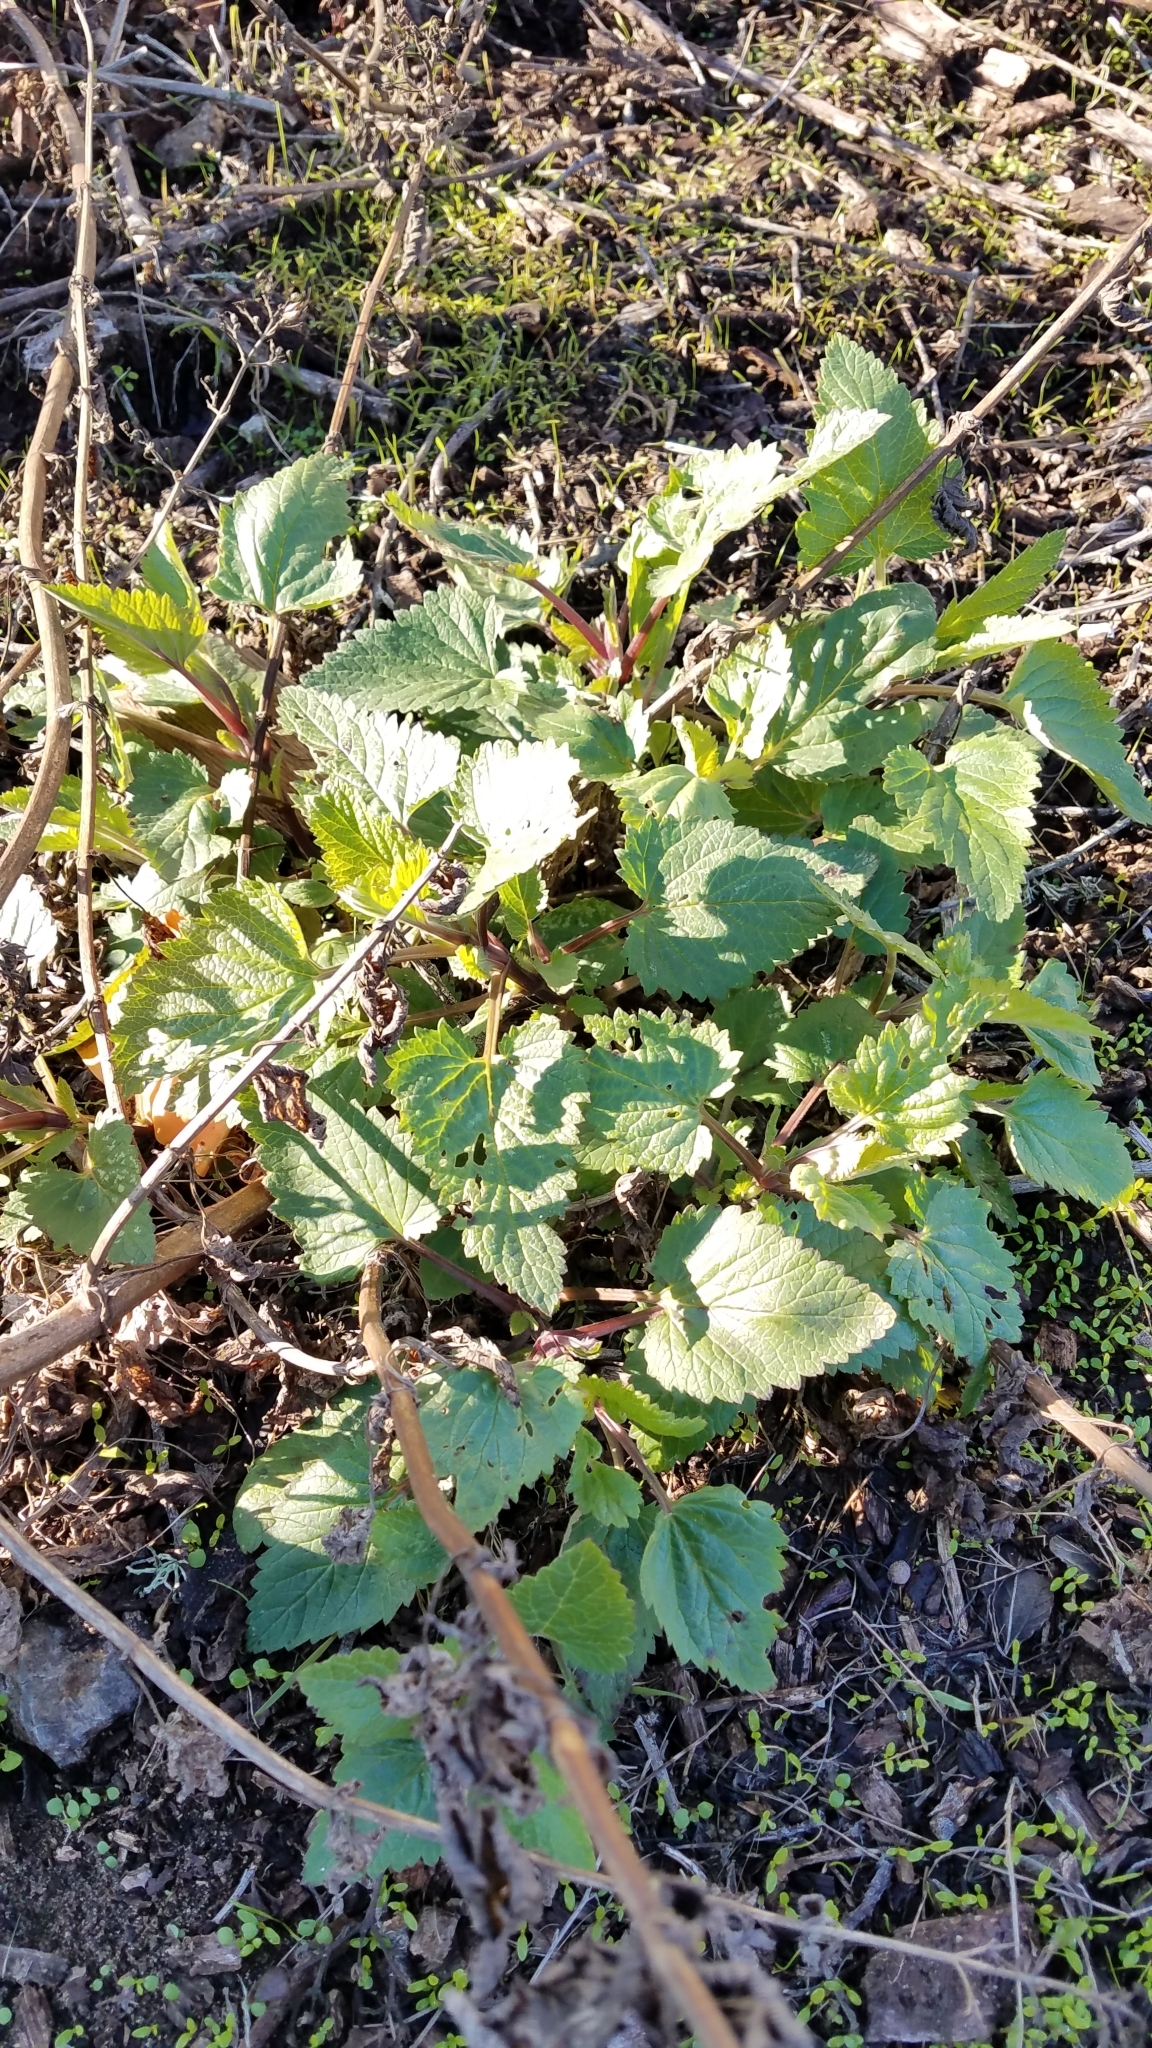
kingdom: Plantae
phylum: Tracheophyta
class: Magnoliopsida
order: Lamiales
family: Scrophulariaceae
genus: Scrophularia
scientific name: Scrophularia californica
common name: California figwort
